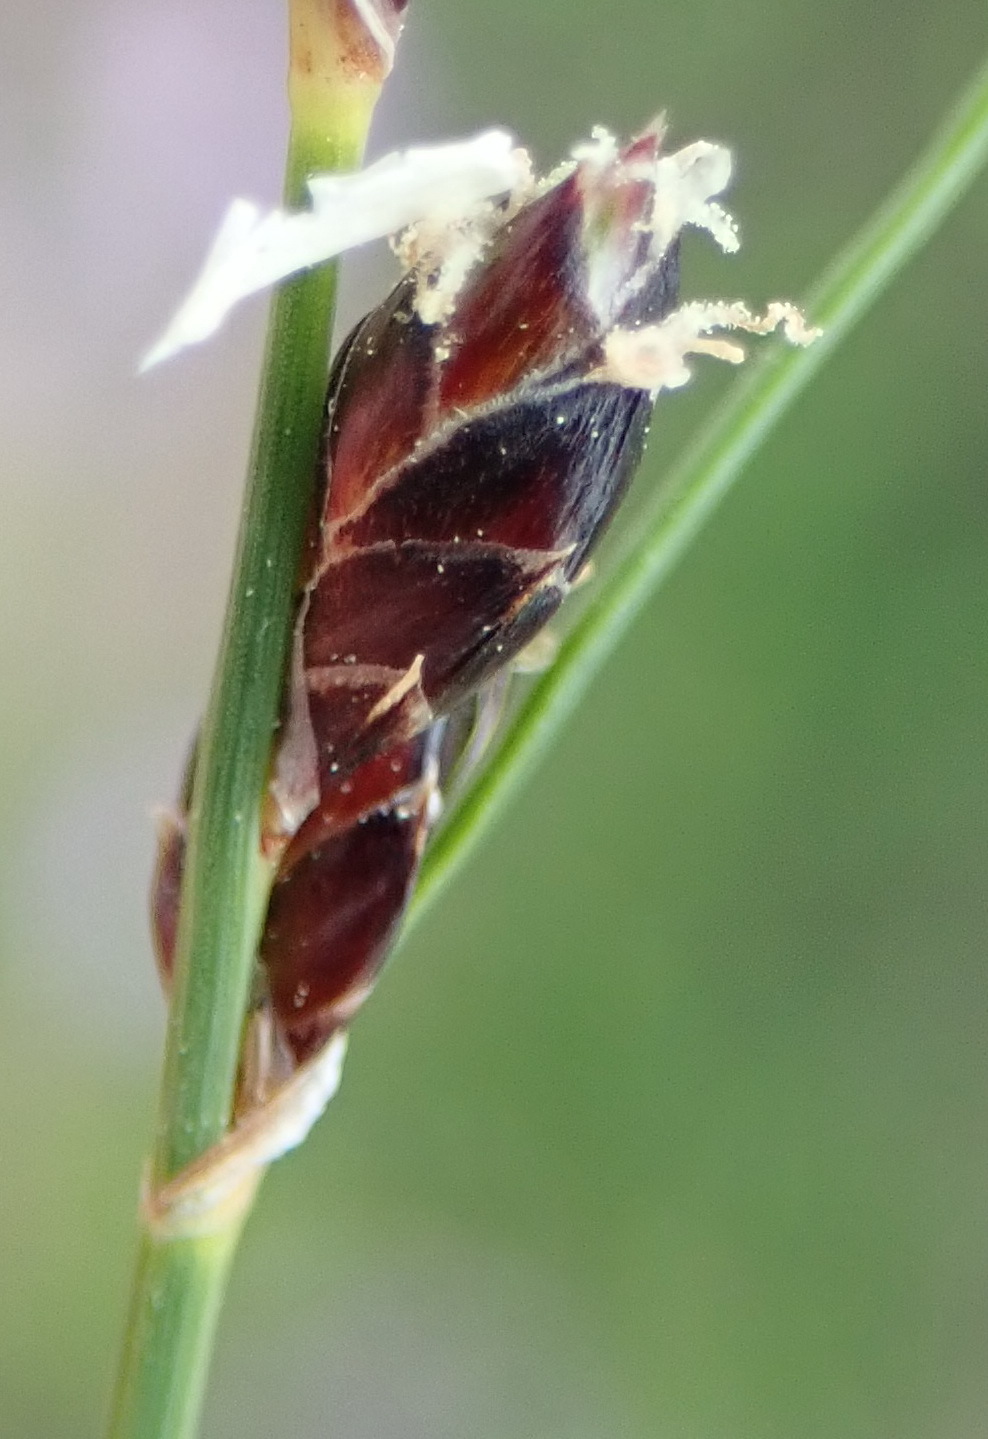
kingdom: Plantae
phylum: Tracheophyta
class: Liliopsida
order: Poales
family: Cyperaceae
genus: Ficinia
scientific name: Ficinia secunda
